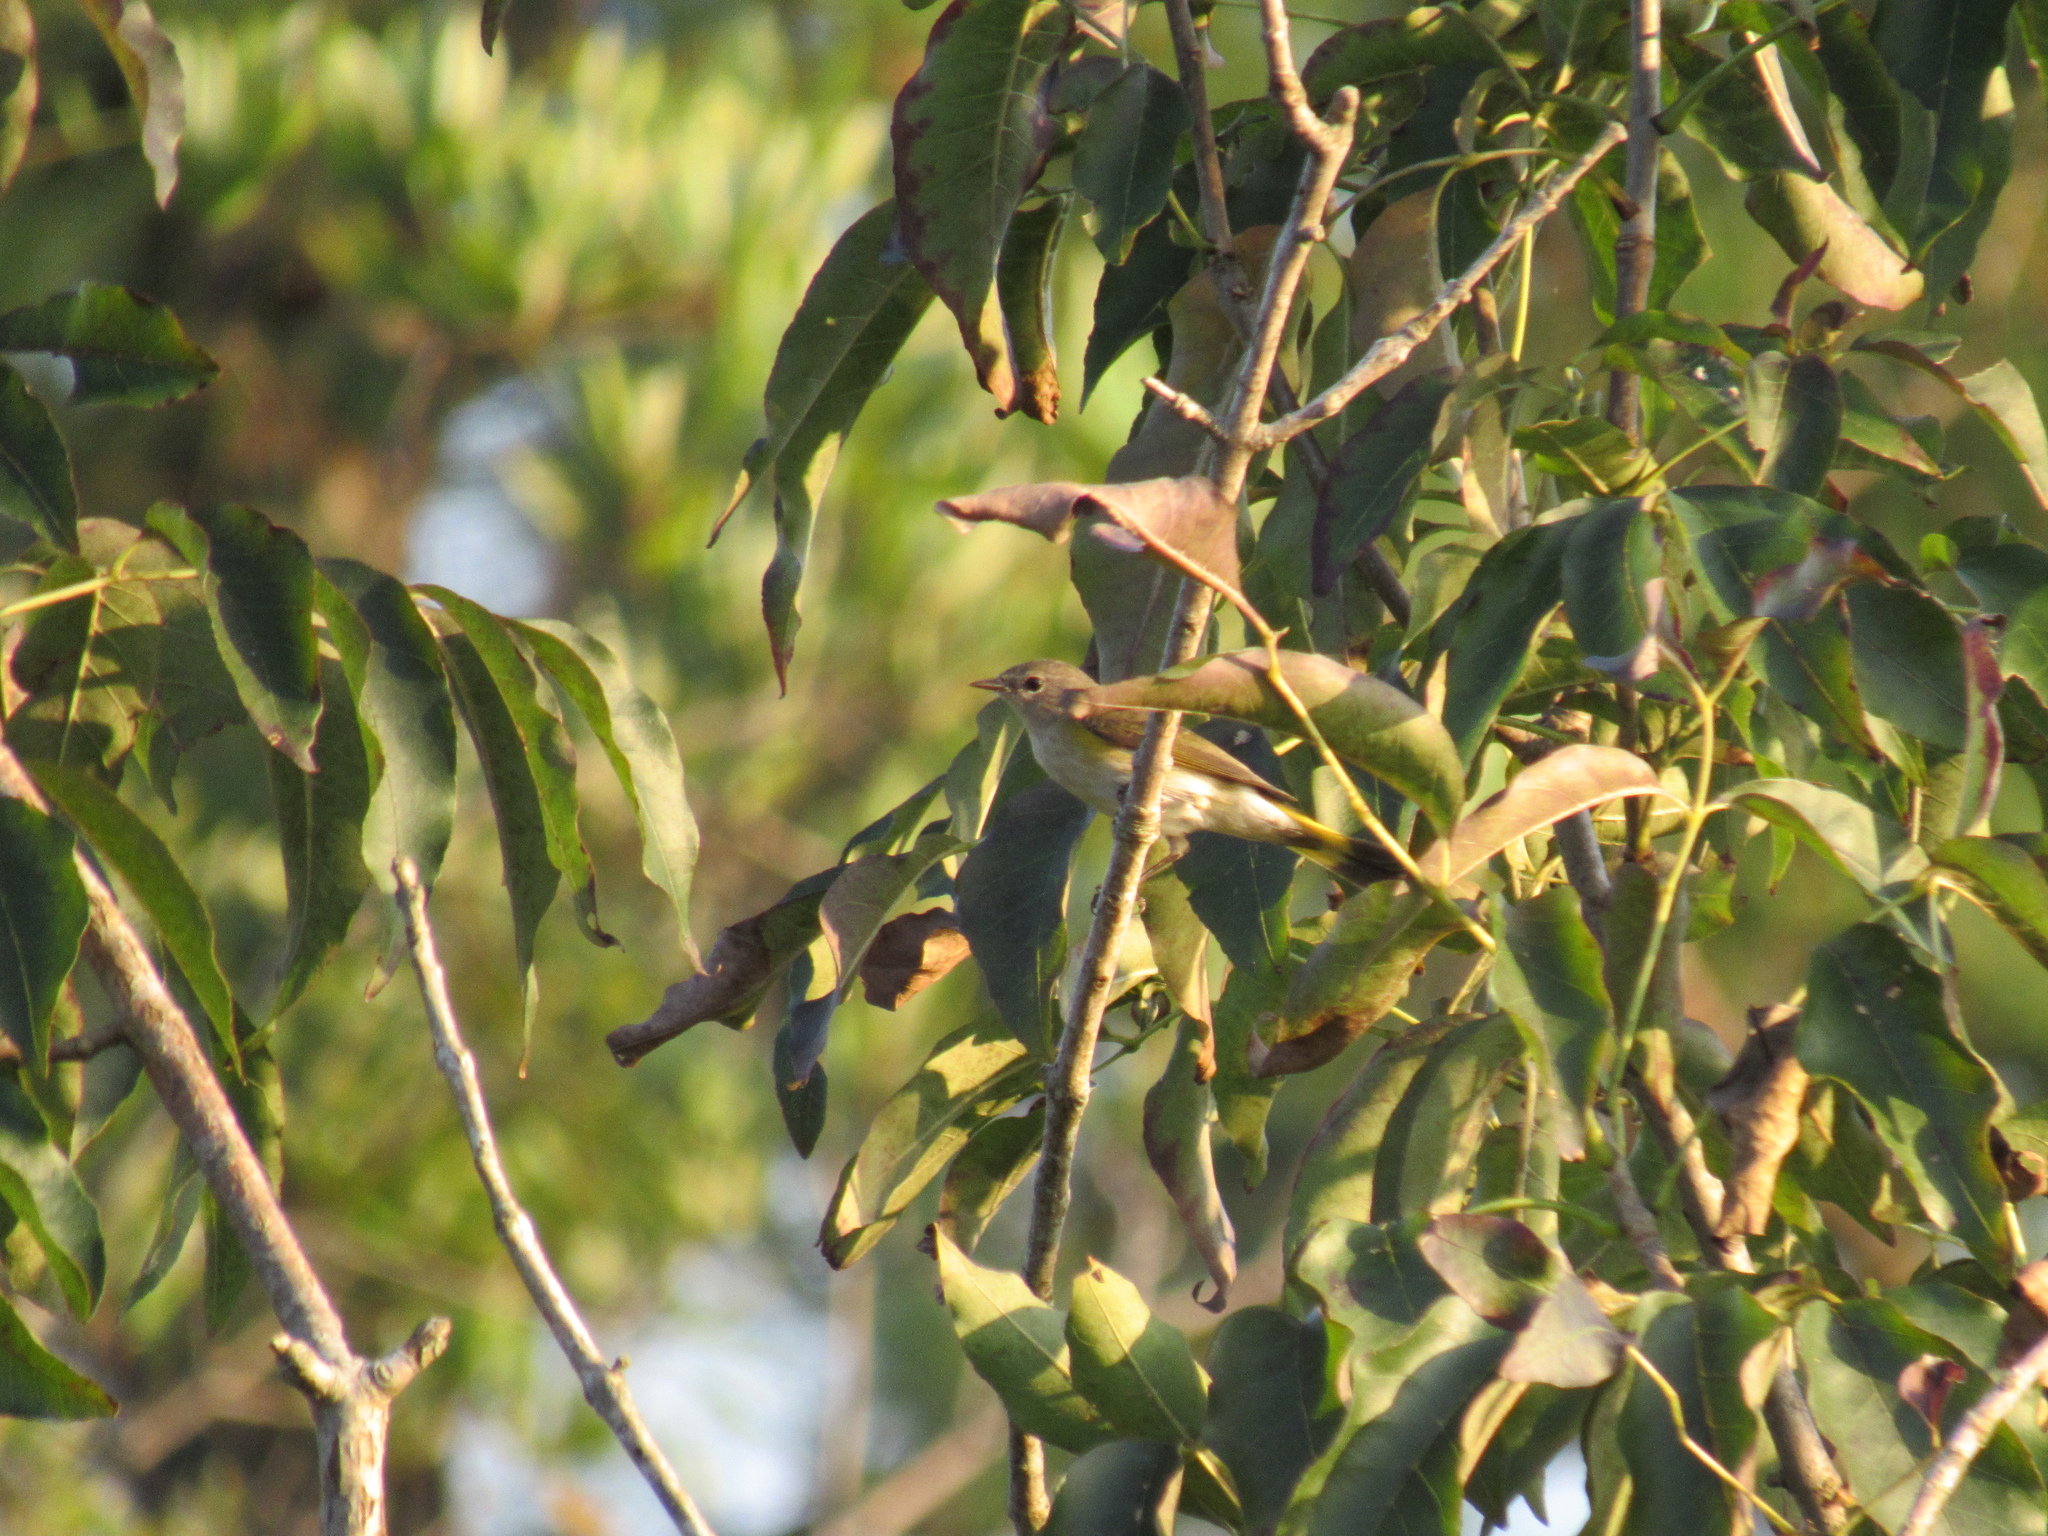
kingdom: Animalia
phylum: Chordata
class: Aves
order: Passeriformes
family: Parulidae
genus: Setophaga
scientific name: Setophaga ruticilla
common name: American redstart
